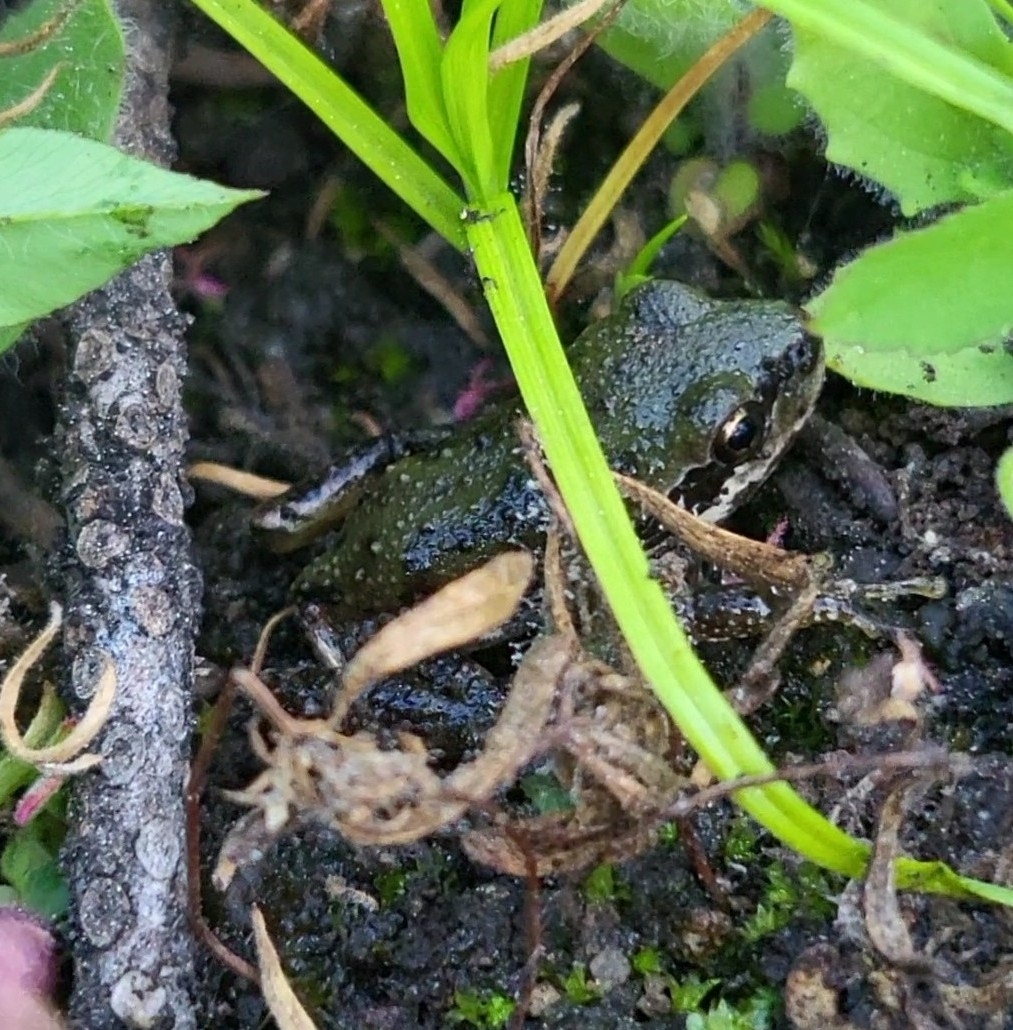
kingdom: Animalia
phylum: Chordata
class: Amphibia
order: Anura
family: Hylidae
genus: Pseudacris
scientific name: Pseudacris regilla
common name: Pacific chorus frog
